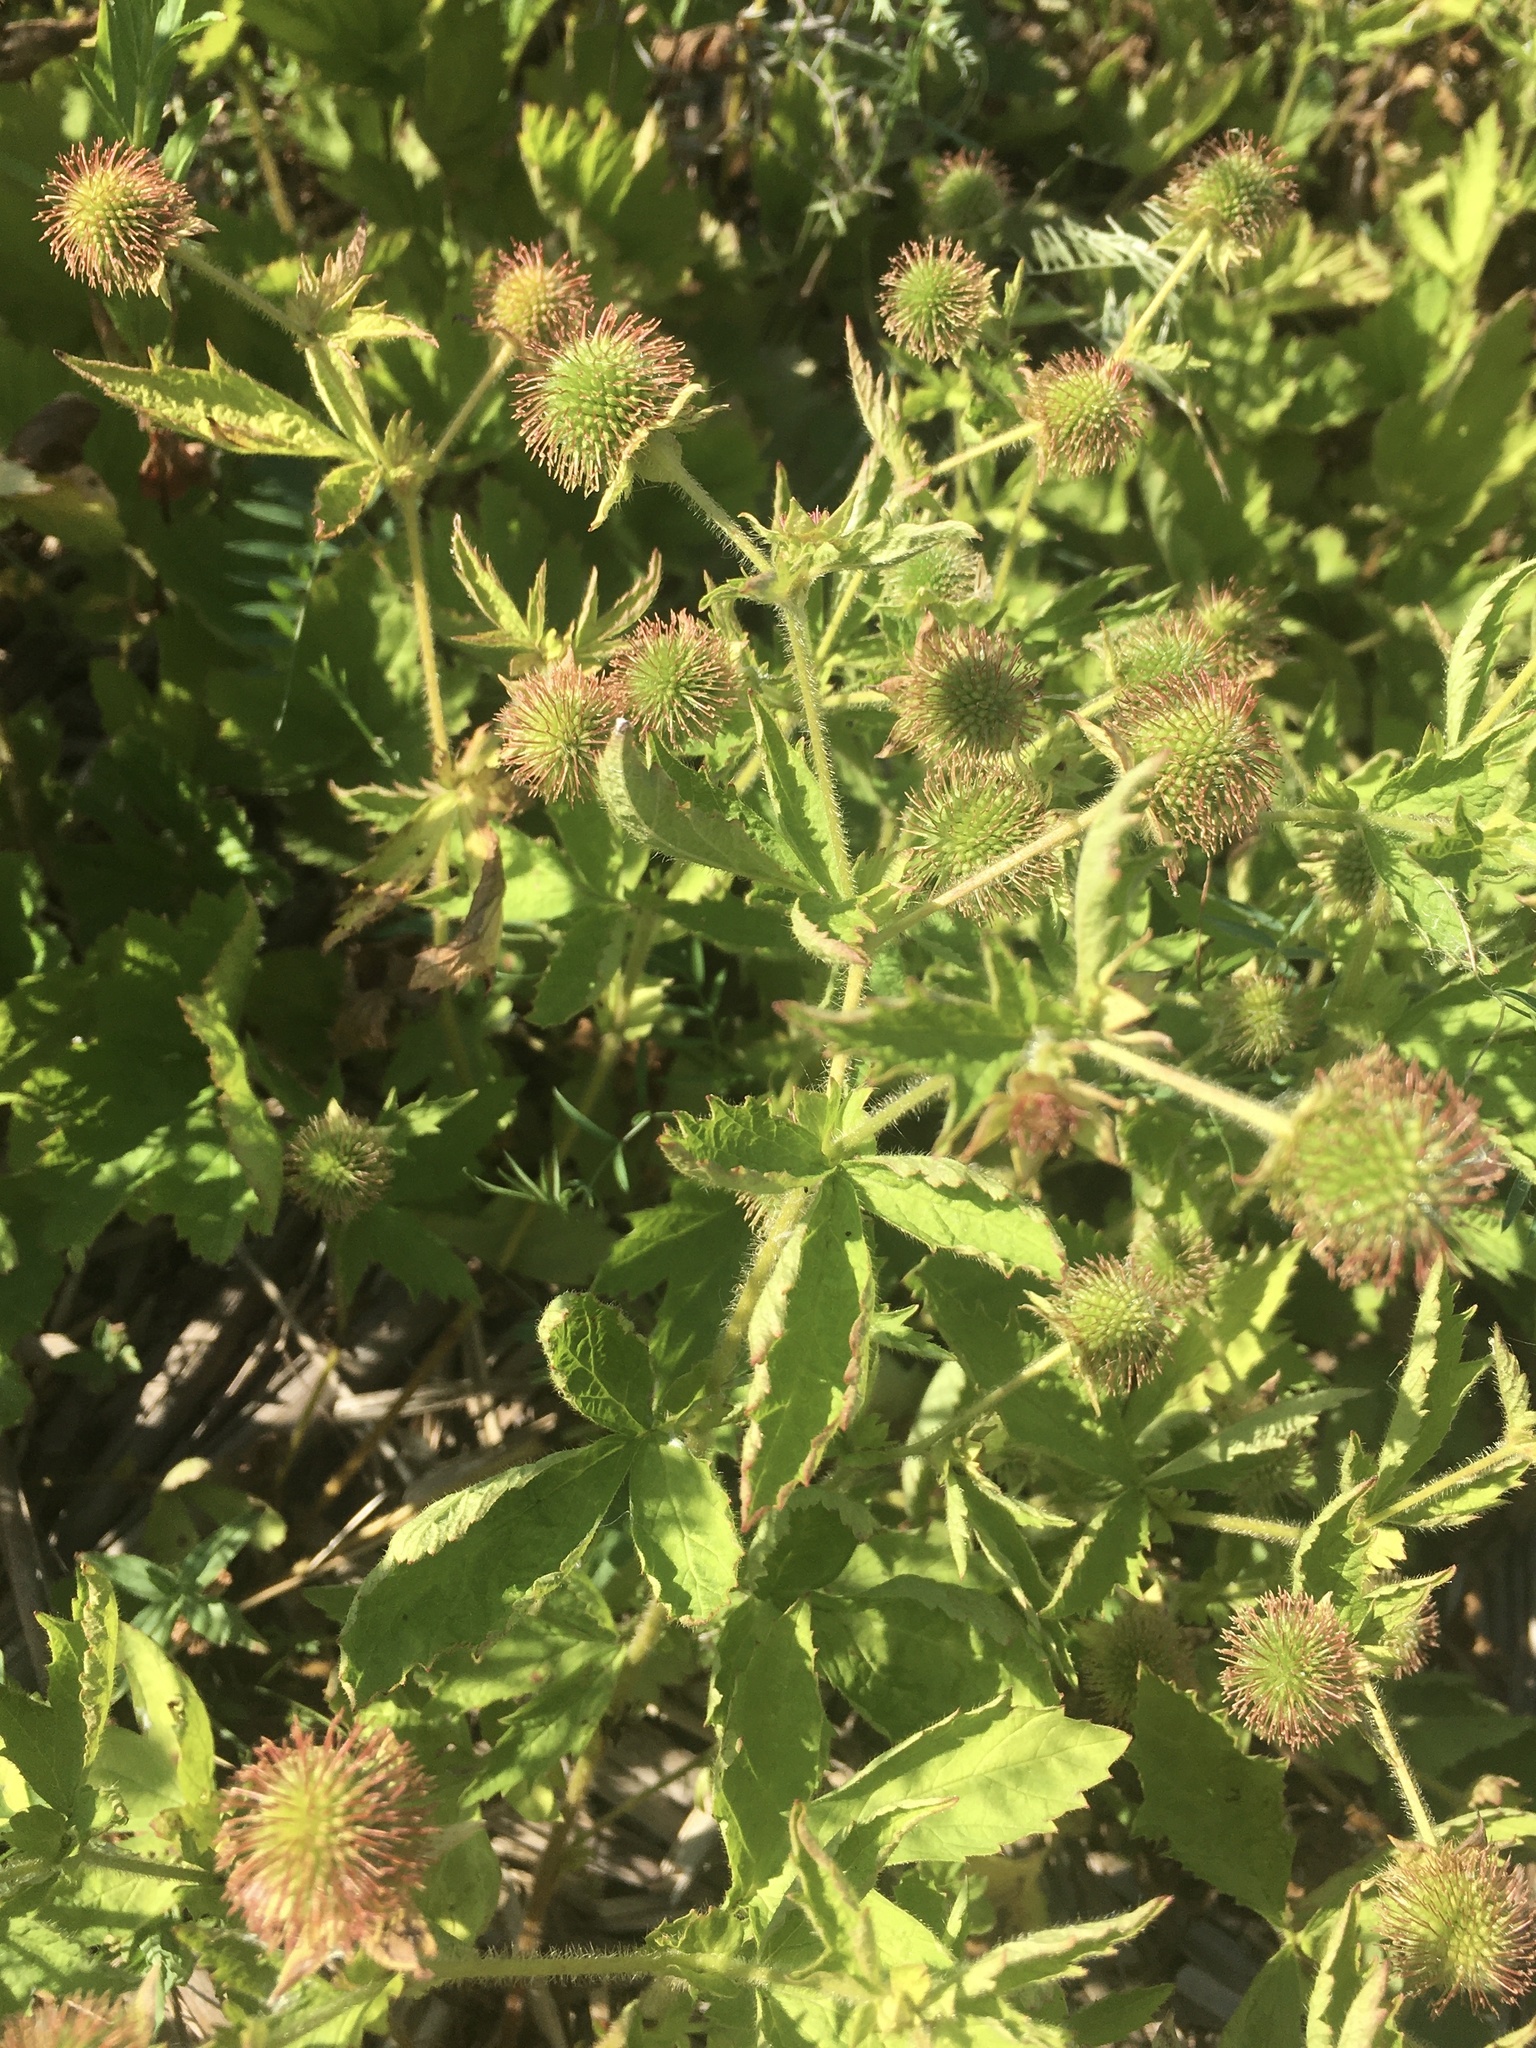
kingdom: Plantae
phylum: Tracheophyta
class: Magnoliopsida
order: Rosales
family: Rosaceae
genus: Geum
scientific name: Geum laciniatum
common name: Rough avens
